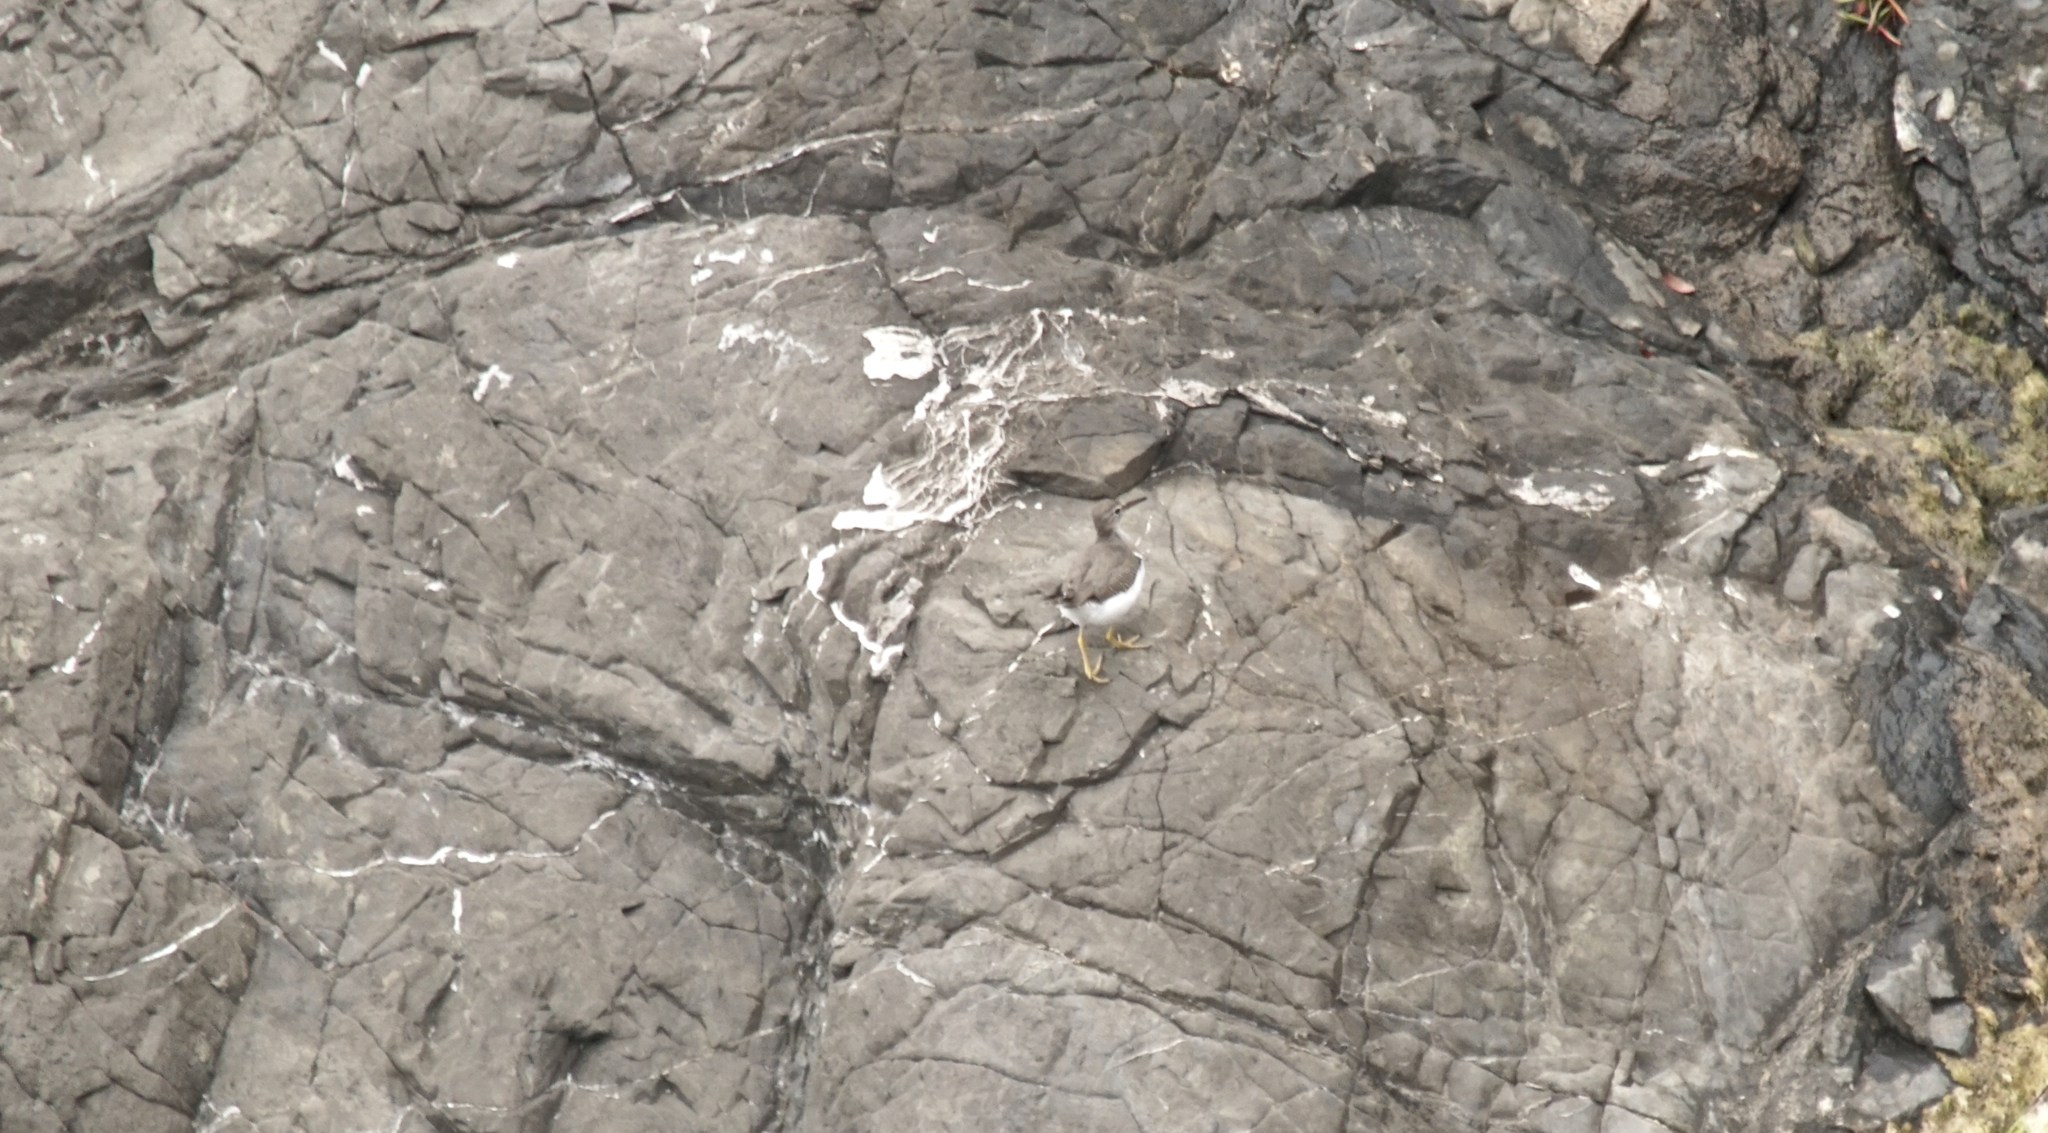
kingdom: Animalia
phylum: Chordata
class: Aves
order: Charadriiformes
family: Scolopacidae
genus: Actitis
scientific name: Actitis macularius
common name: Spotted sandpiper
